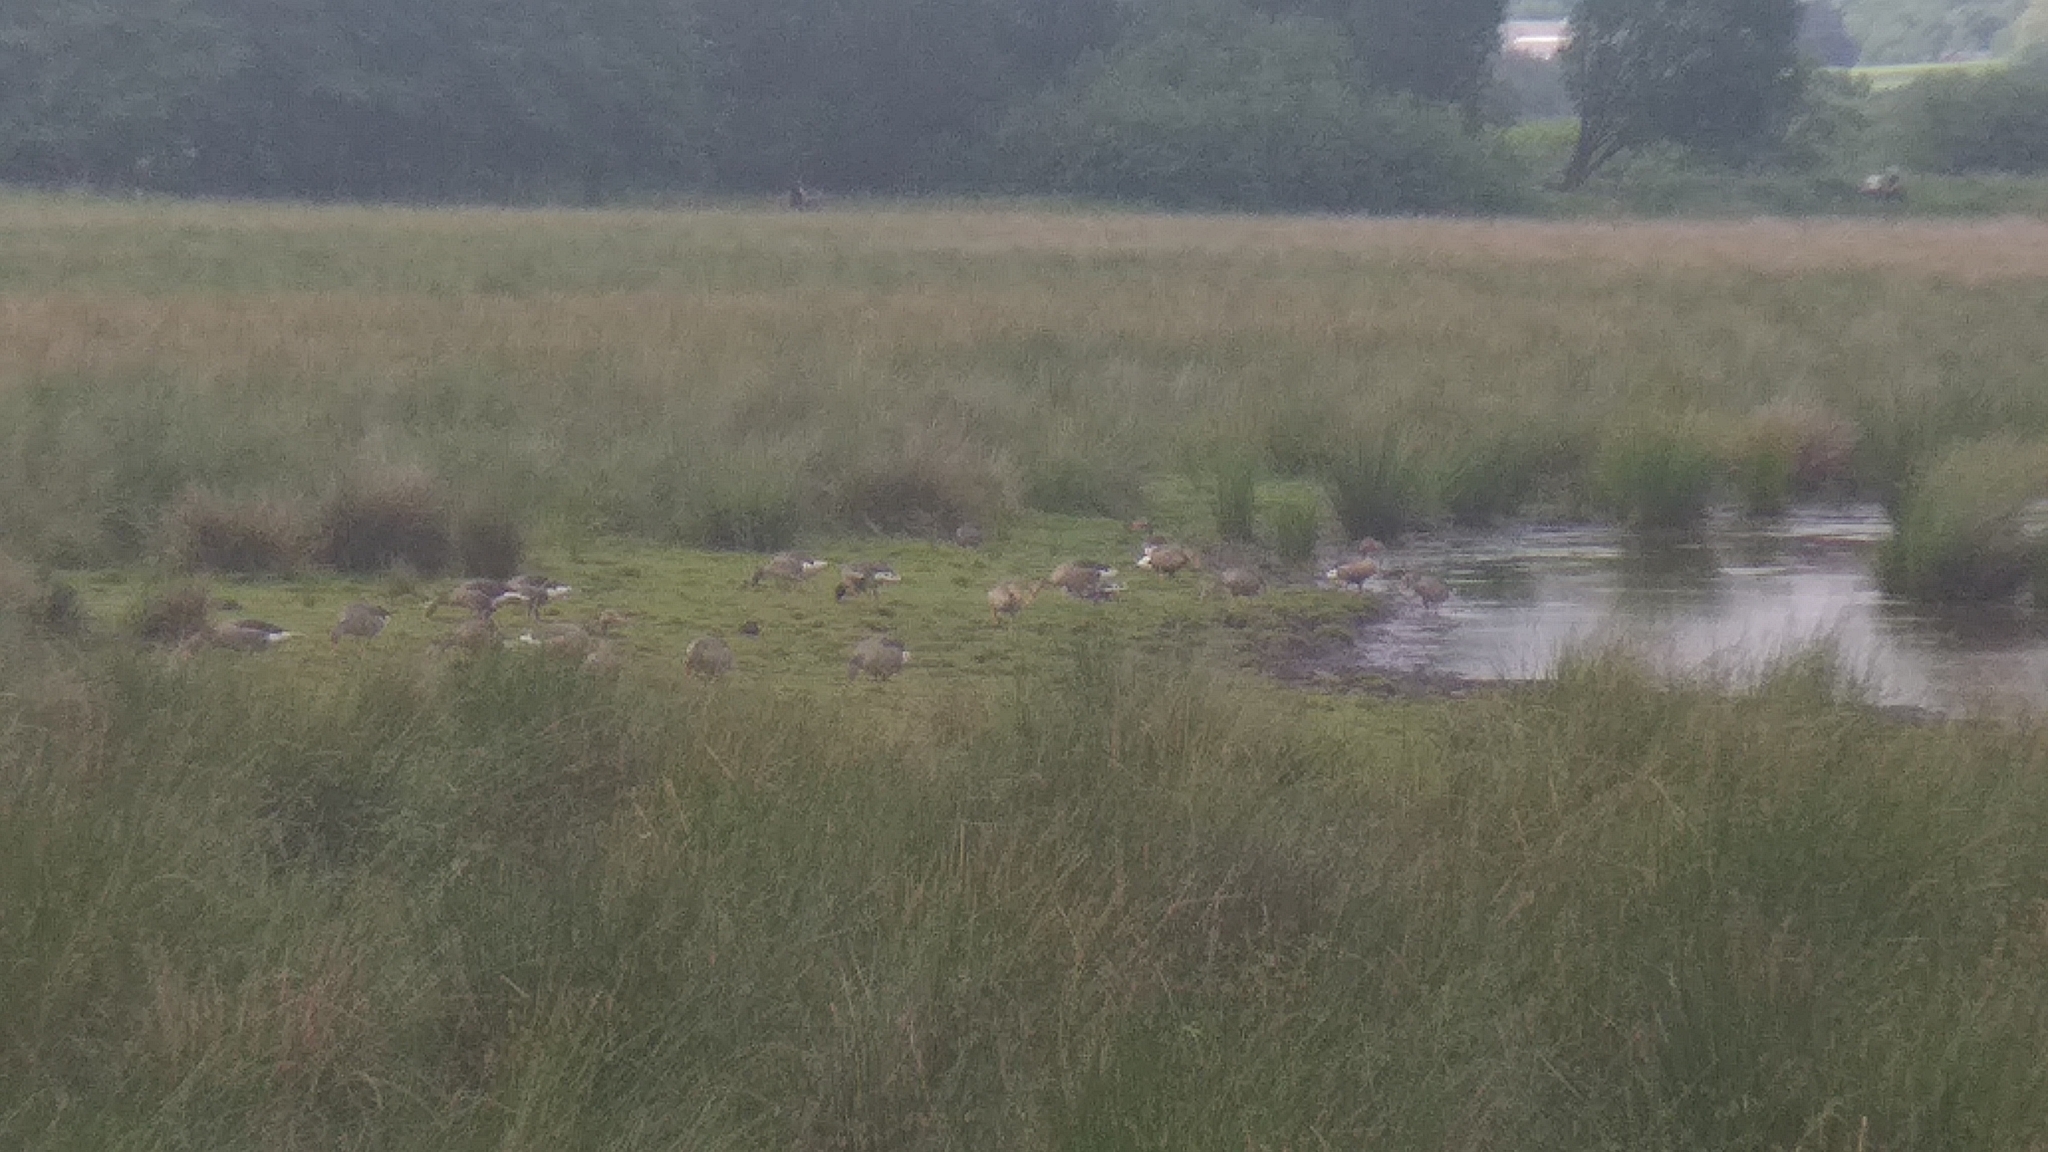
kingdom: Animalia
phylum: Chordata
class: Aves
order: Anseriformes
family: Anatidae
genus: Anser
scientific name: Anser anser
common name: Greylag goose
